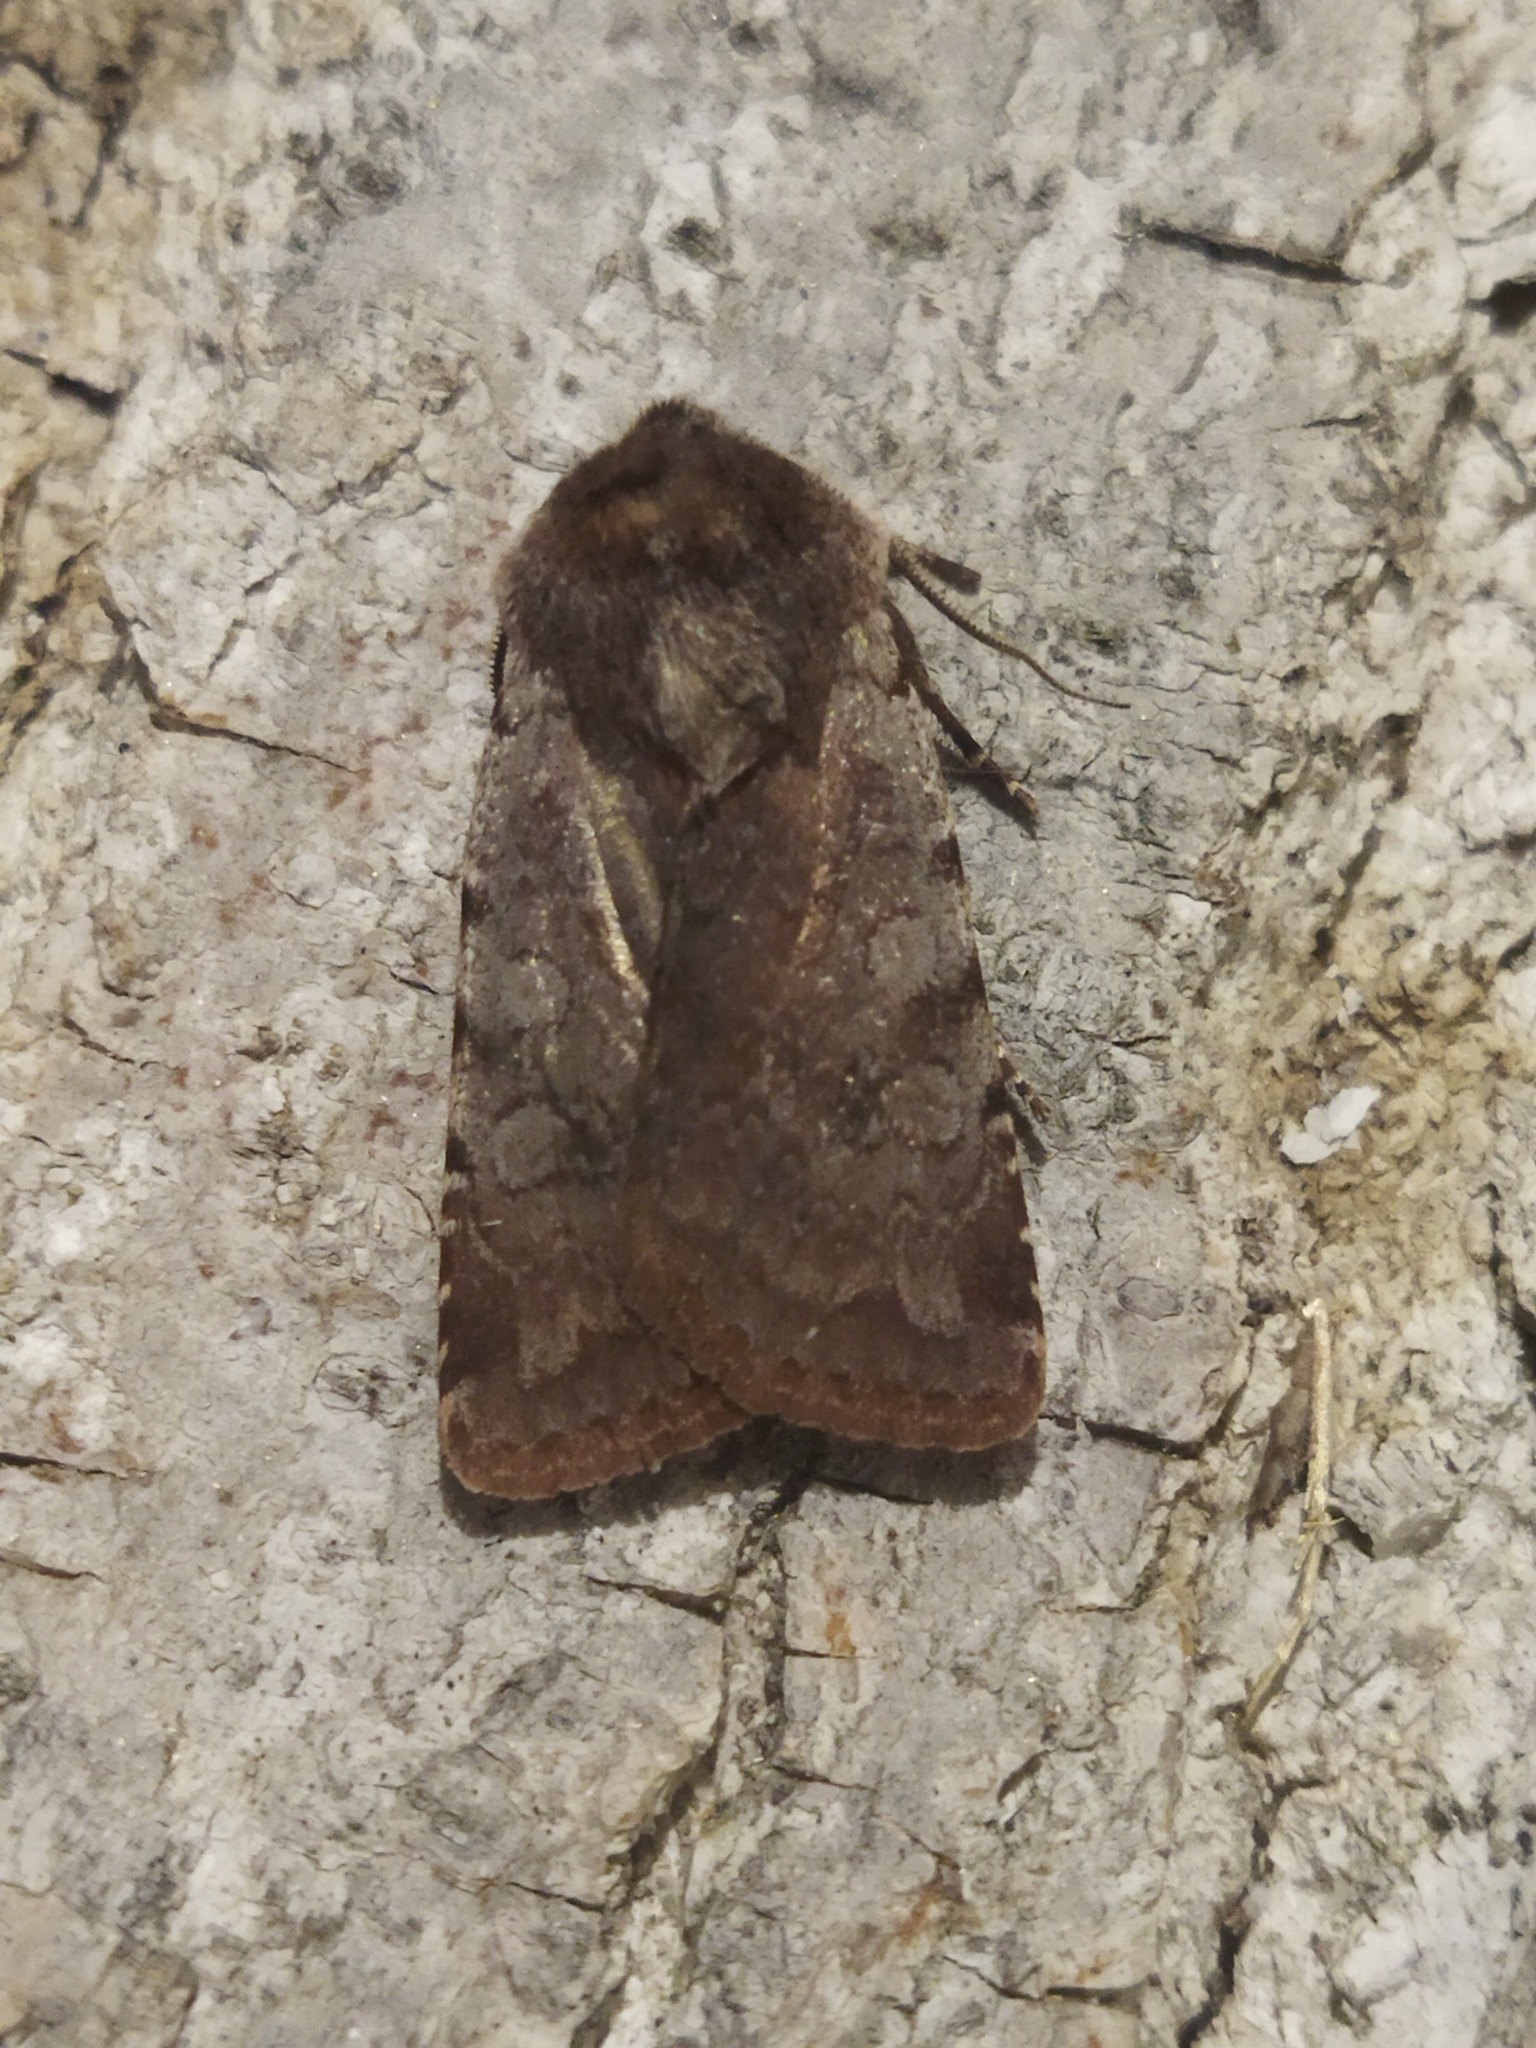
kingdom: Animalia
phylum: Arthropoda
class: Insecta
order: Lepidoptera
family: Noctuidae
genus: Cerastis
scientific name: Cerastis rubricosa
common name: Red chestnut
